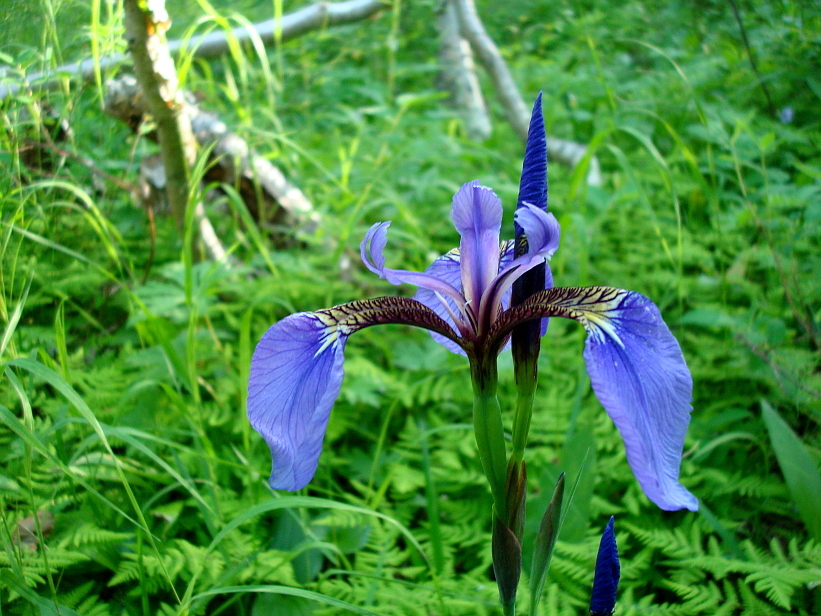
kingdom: Plantae
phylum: Tracheophyta
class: Liliopsida
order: Asparagales
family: Iridaceae
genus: Iris
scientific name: Iris setosa
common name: Arctic blue flag
